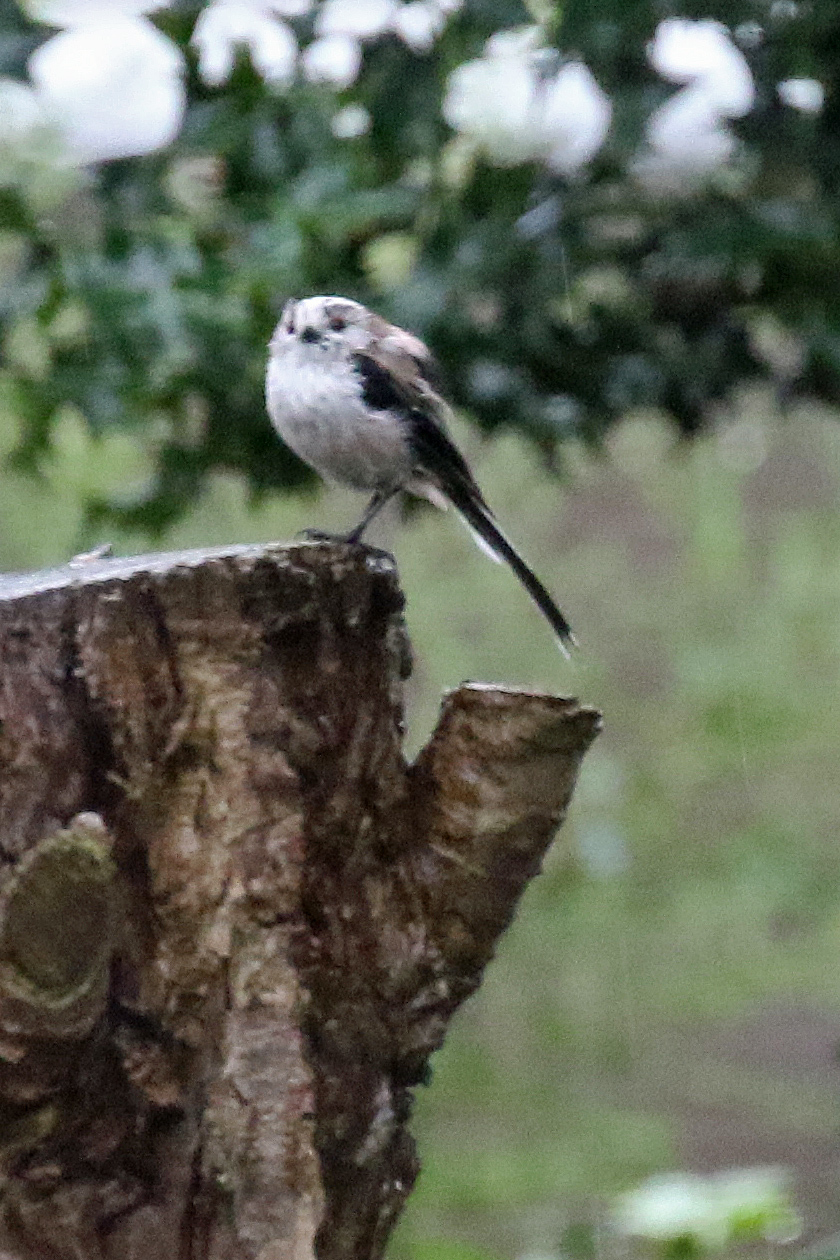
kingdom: Animalia
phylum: Chordata
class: Aves
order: Passeriformes
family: Aegithalidae
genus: Aegithalos
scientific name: Aegithalos caudatus
